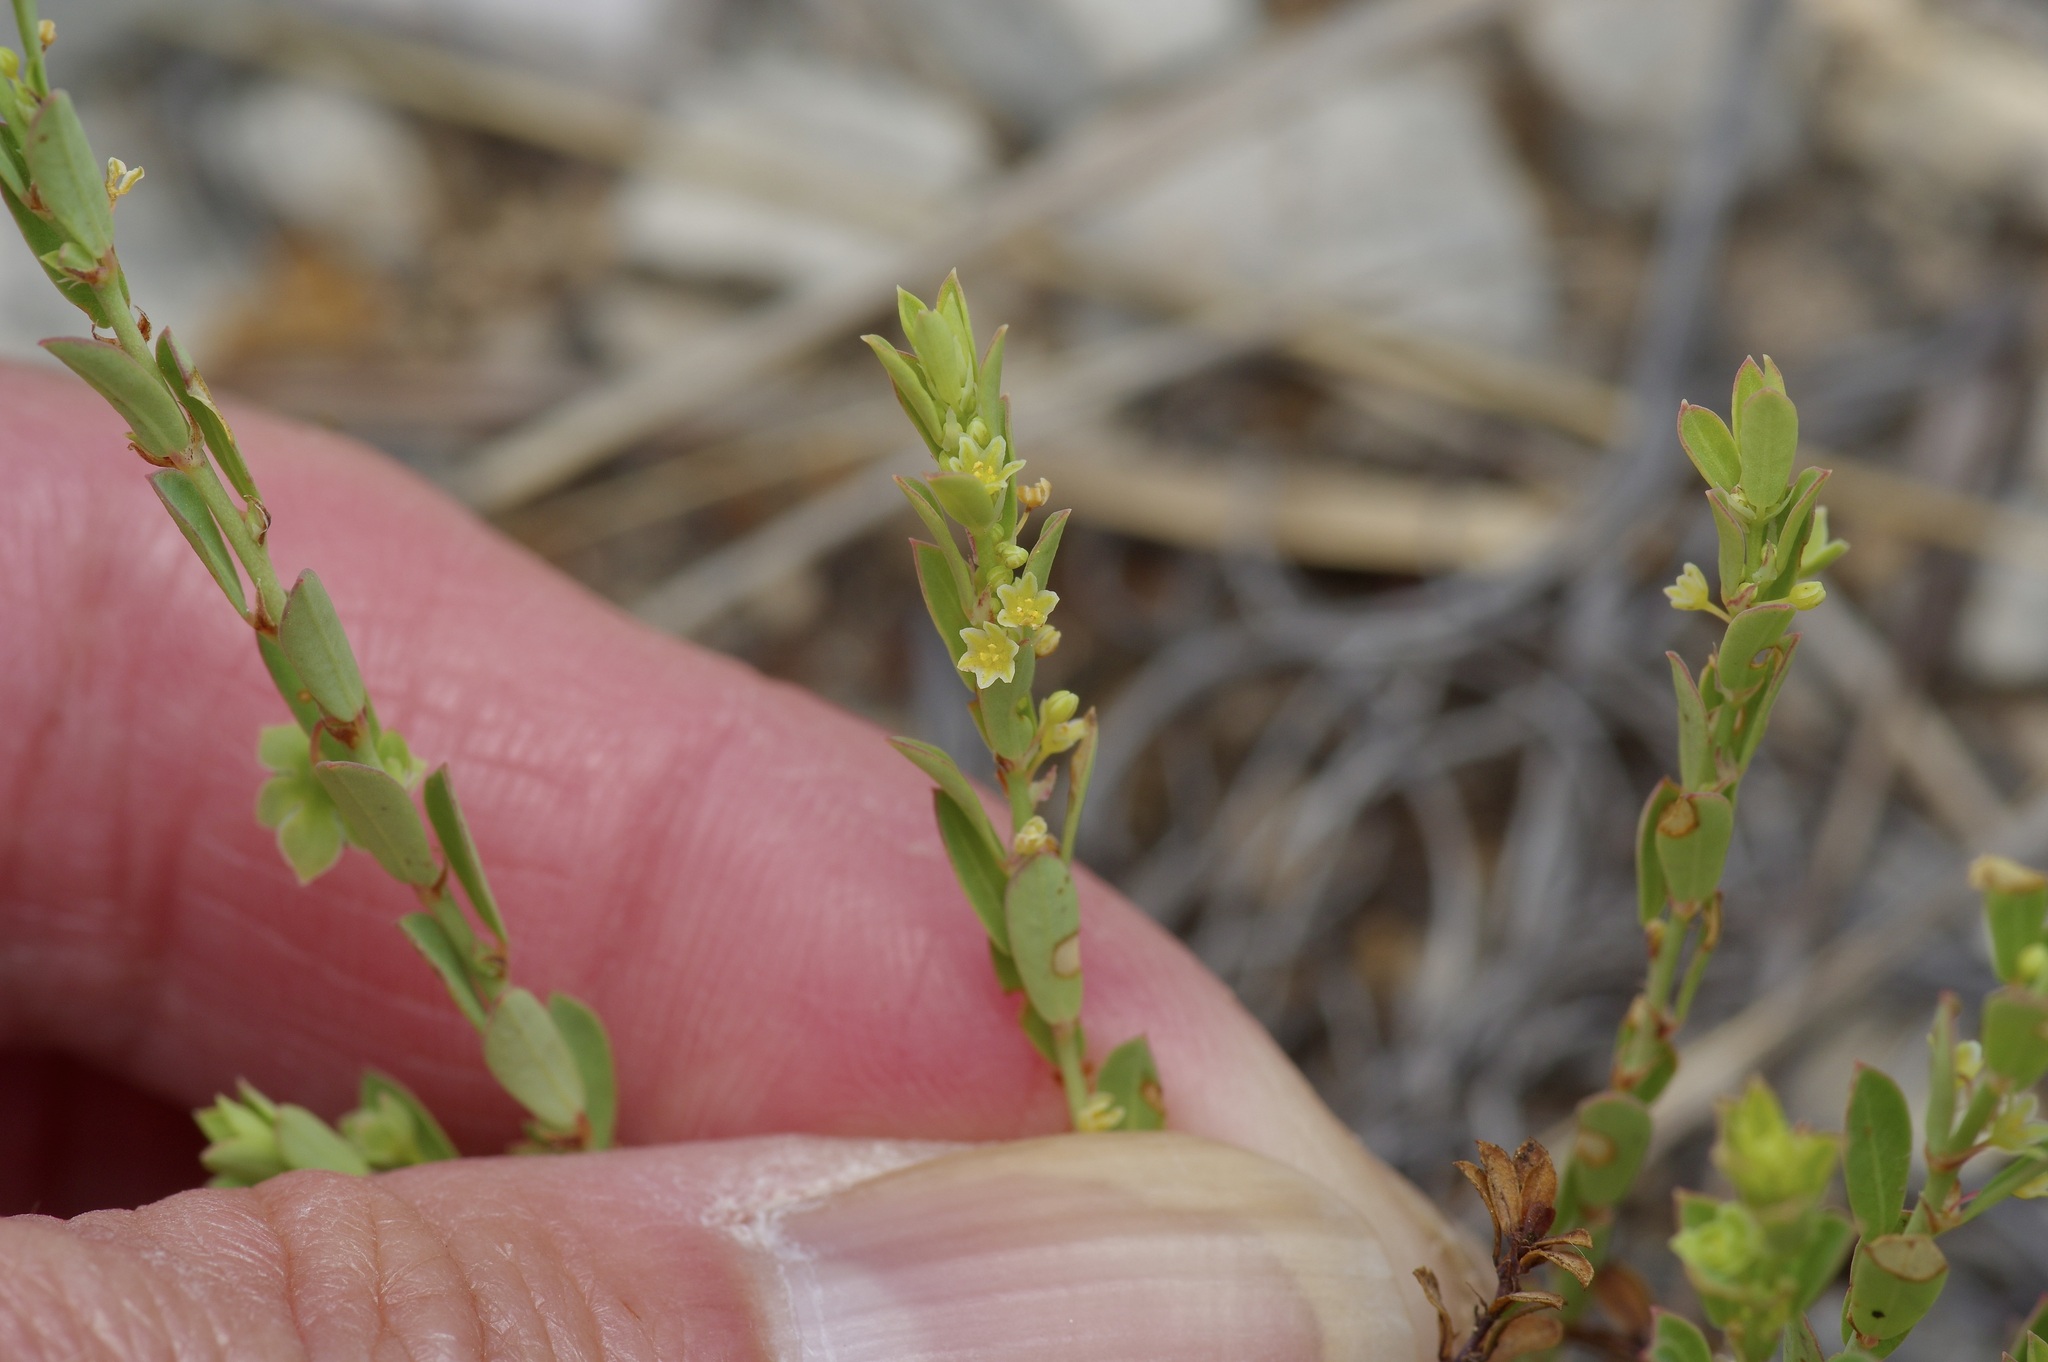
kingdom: Plantae
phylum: Tracheophyta
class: Magnoliopsida
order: Malpighiales
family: Phyllanthaceae
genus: Phyllanthus
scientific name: Phyllanthus polygonoides
